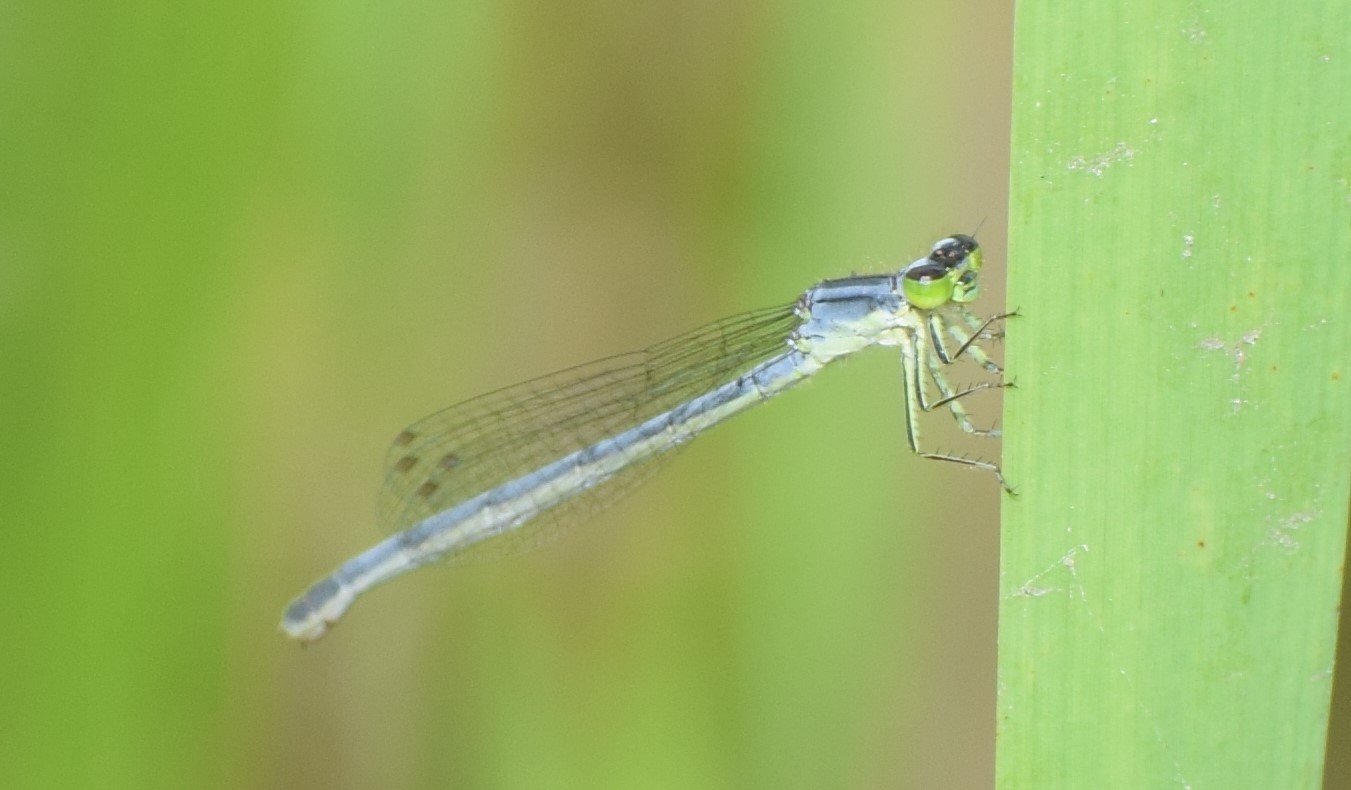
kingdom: Animalia
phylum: Arthropoda
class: Insecta
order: Odonata
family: Coenagrionidae
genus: Ischnura
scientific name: Ischnura verticalis
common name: Eastern forktail
